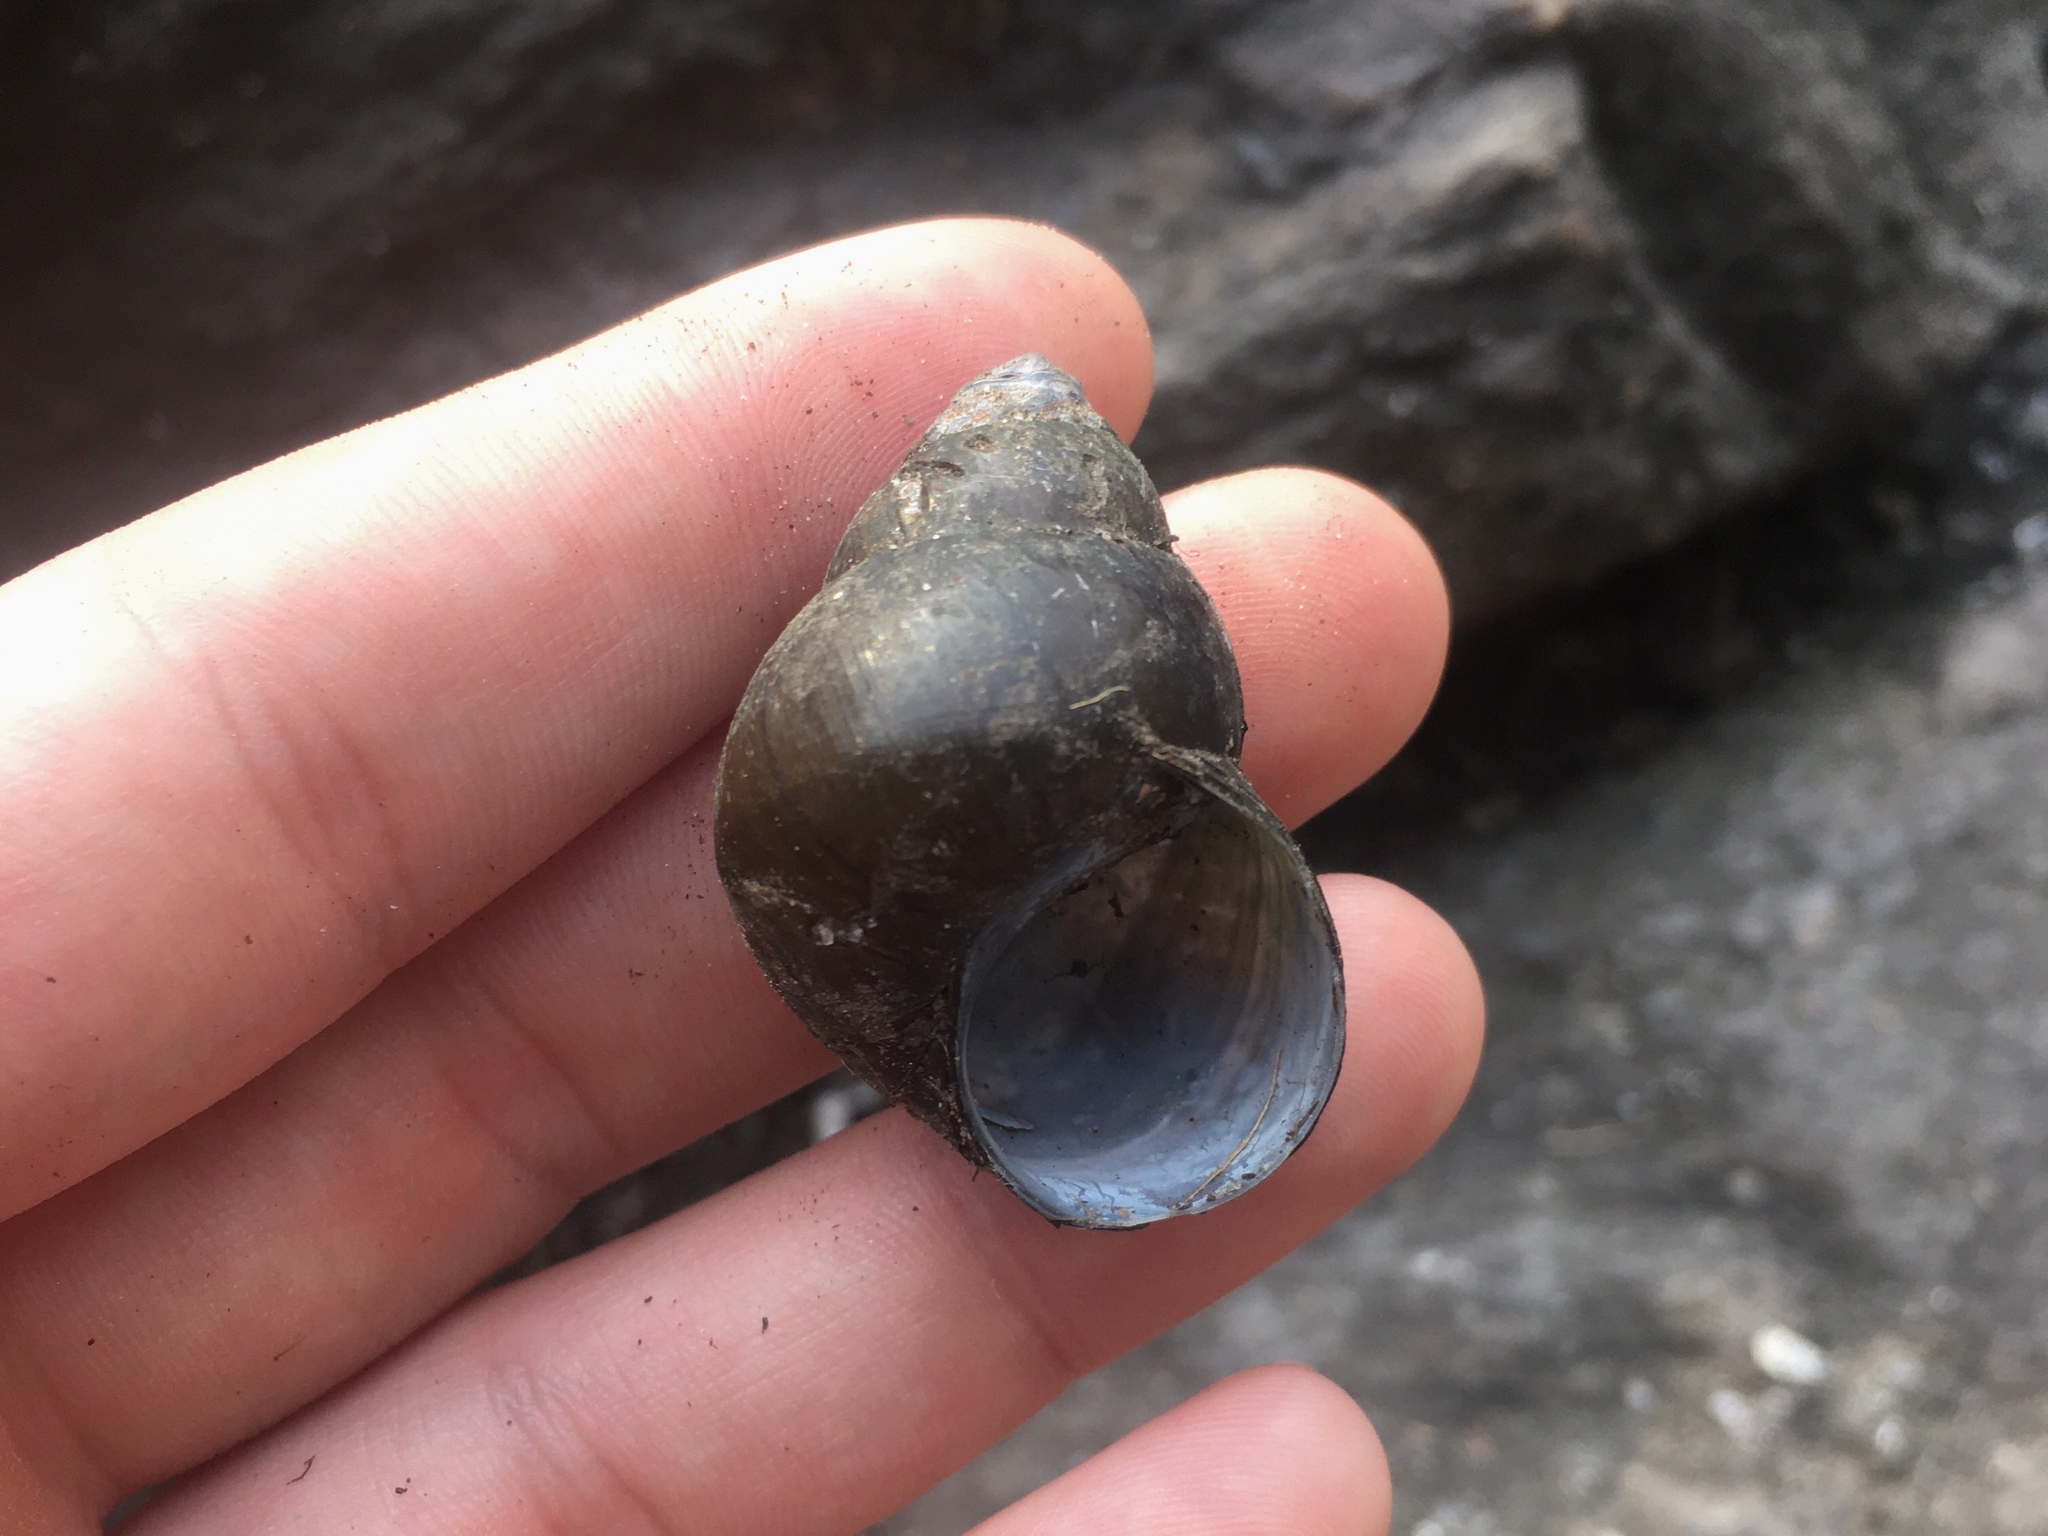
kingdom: Animalia
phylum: Mollusca
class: Gastropoda
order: Architaenioglossa
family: Viviparidae
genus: Cipangopaludina
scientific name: Cipangopaludina chinensis
